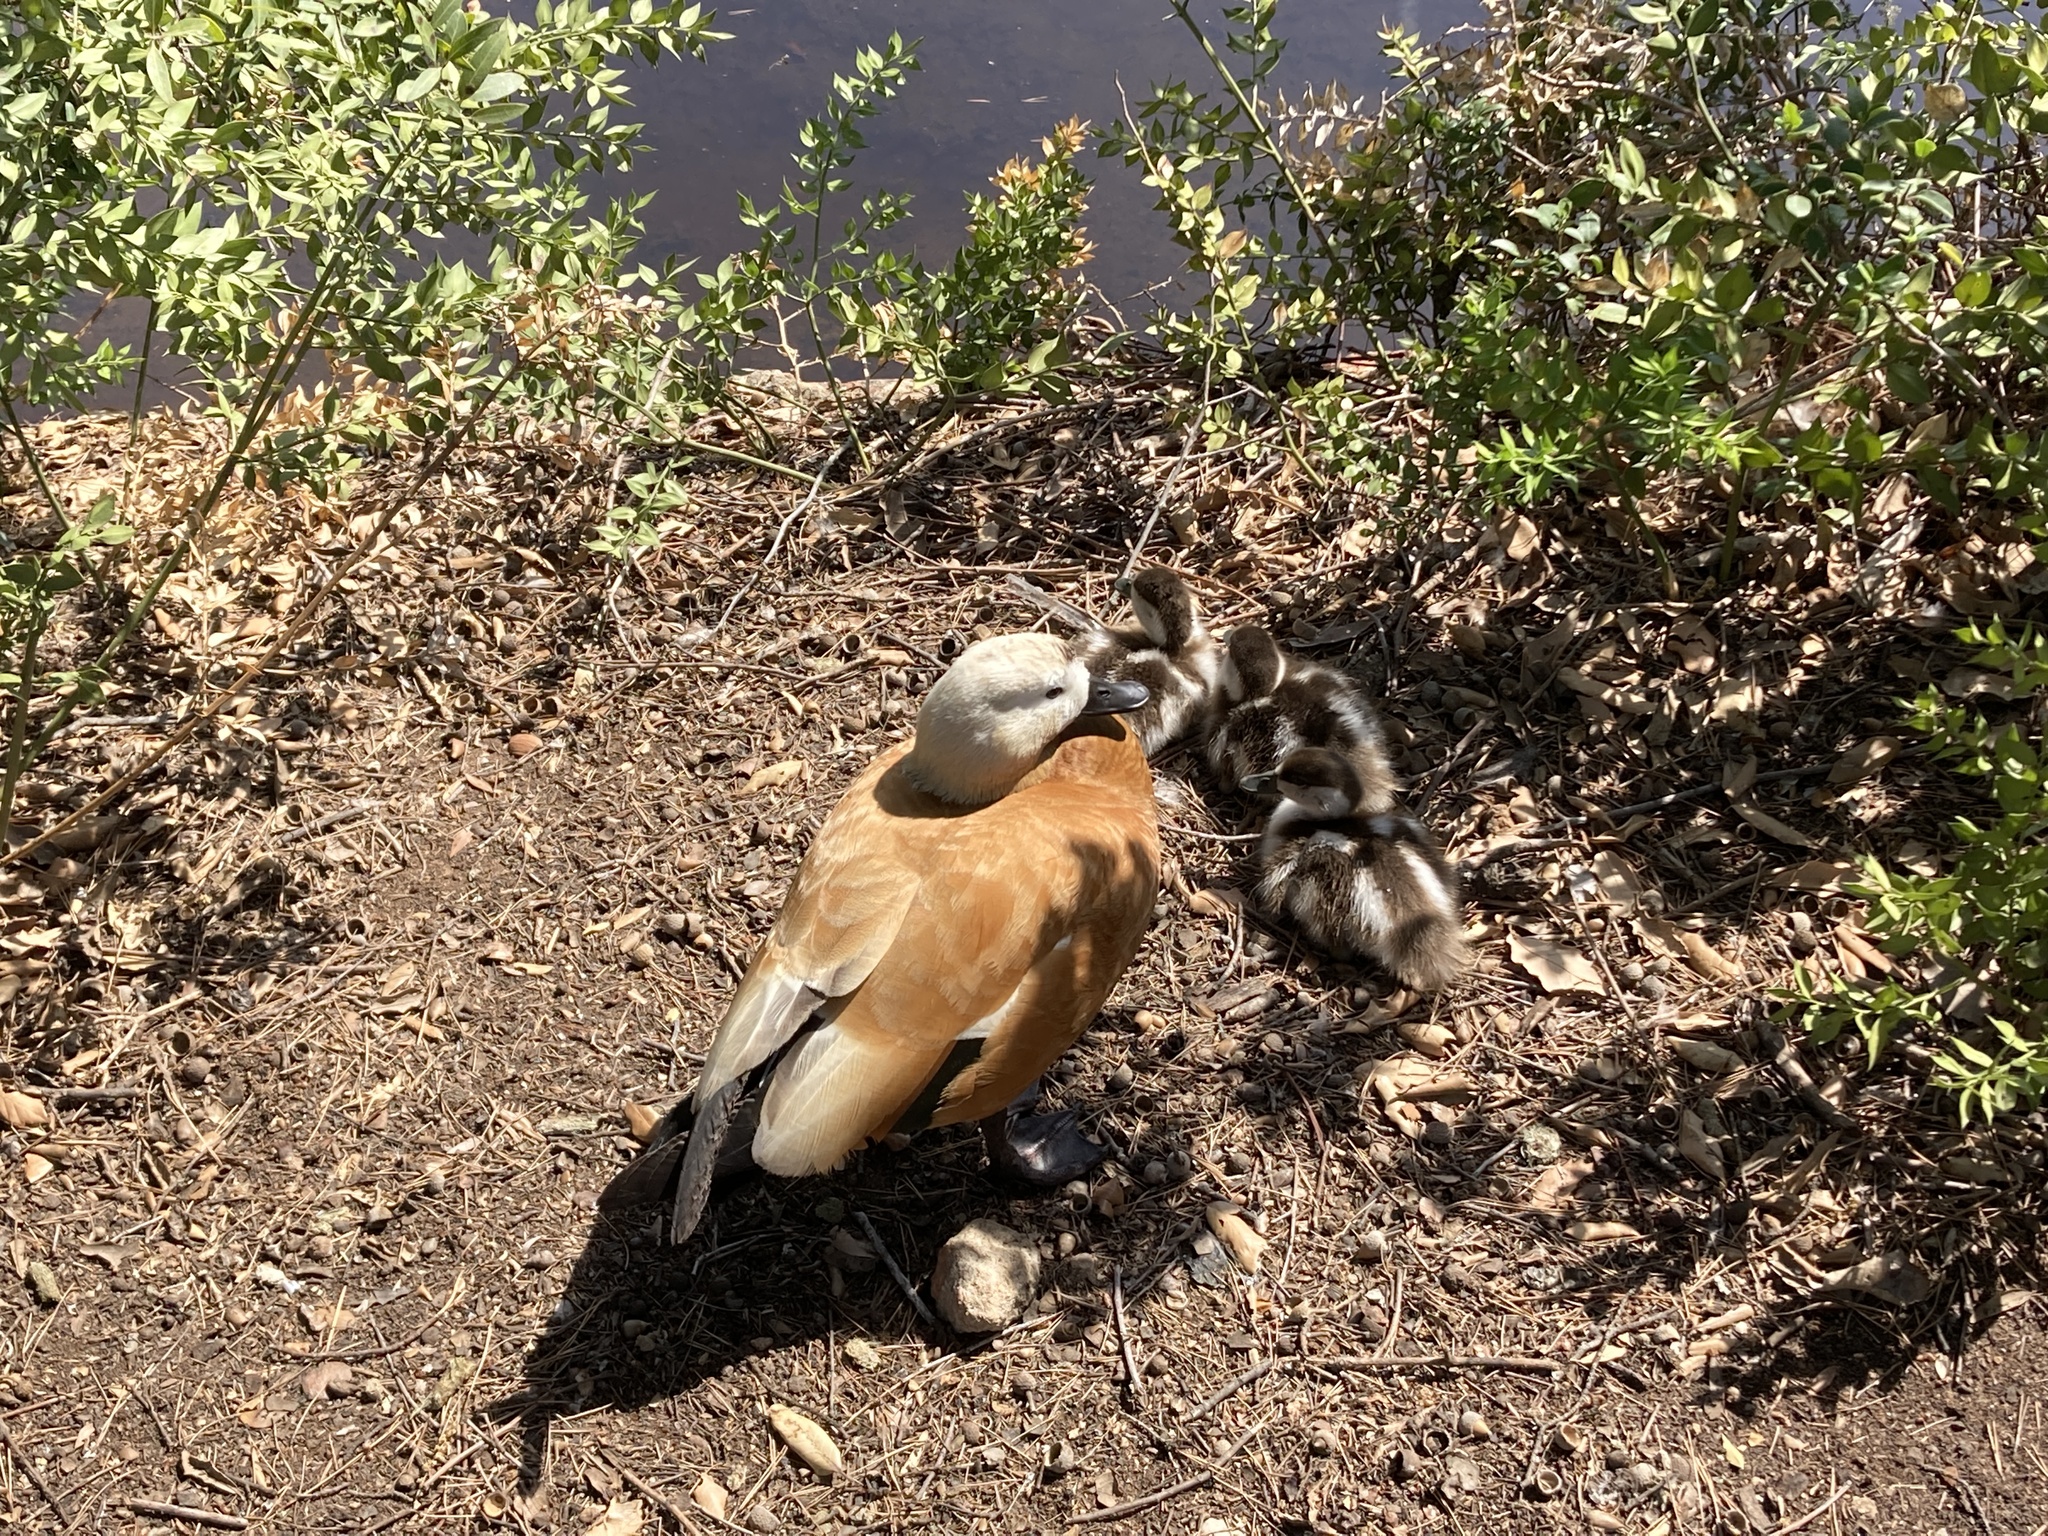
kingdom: Animalia
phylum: Chordata
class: Aves
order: Anseriformes
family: Anatidae
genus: Tadorna
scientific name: Tadorna ferruginea
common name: Ruddy shelduck
